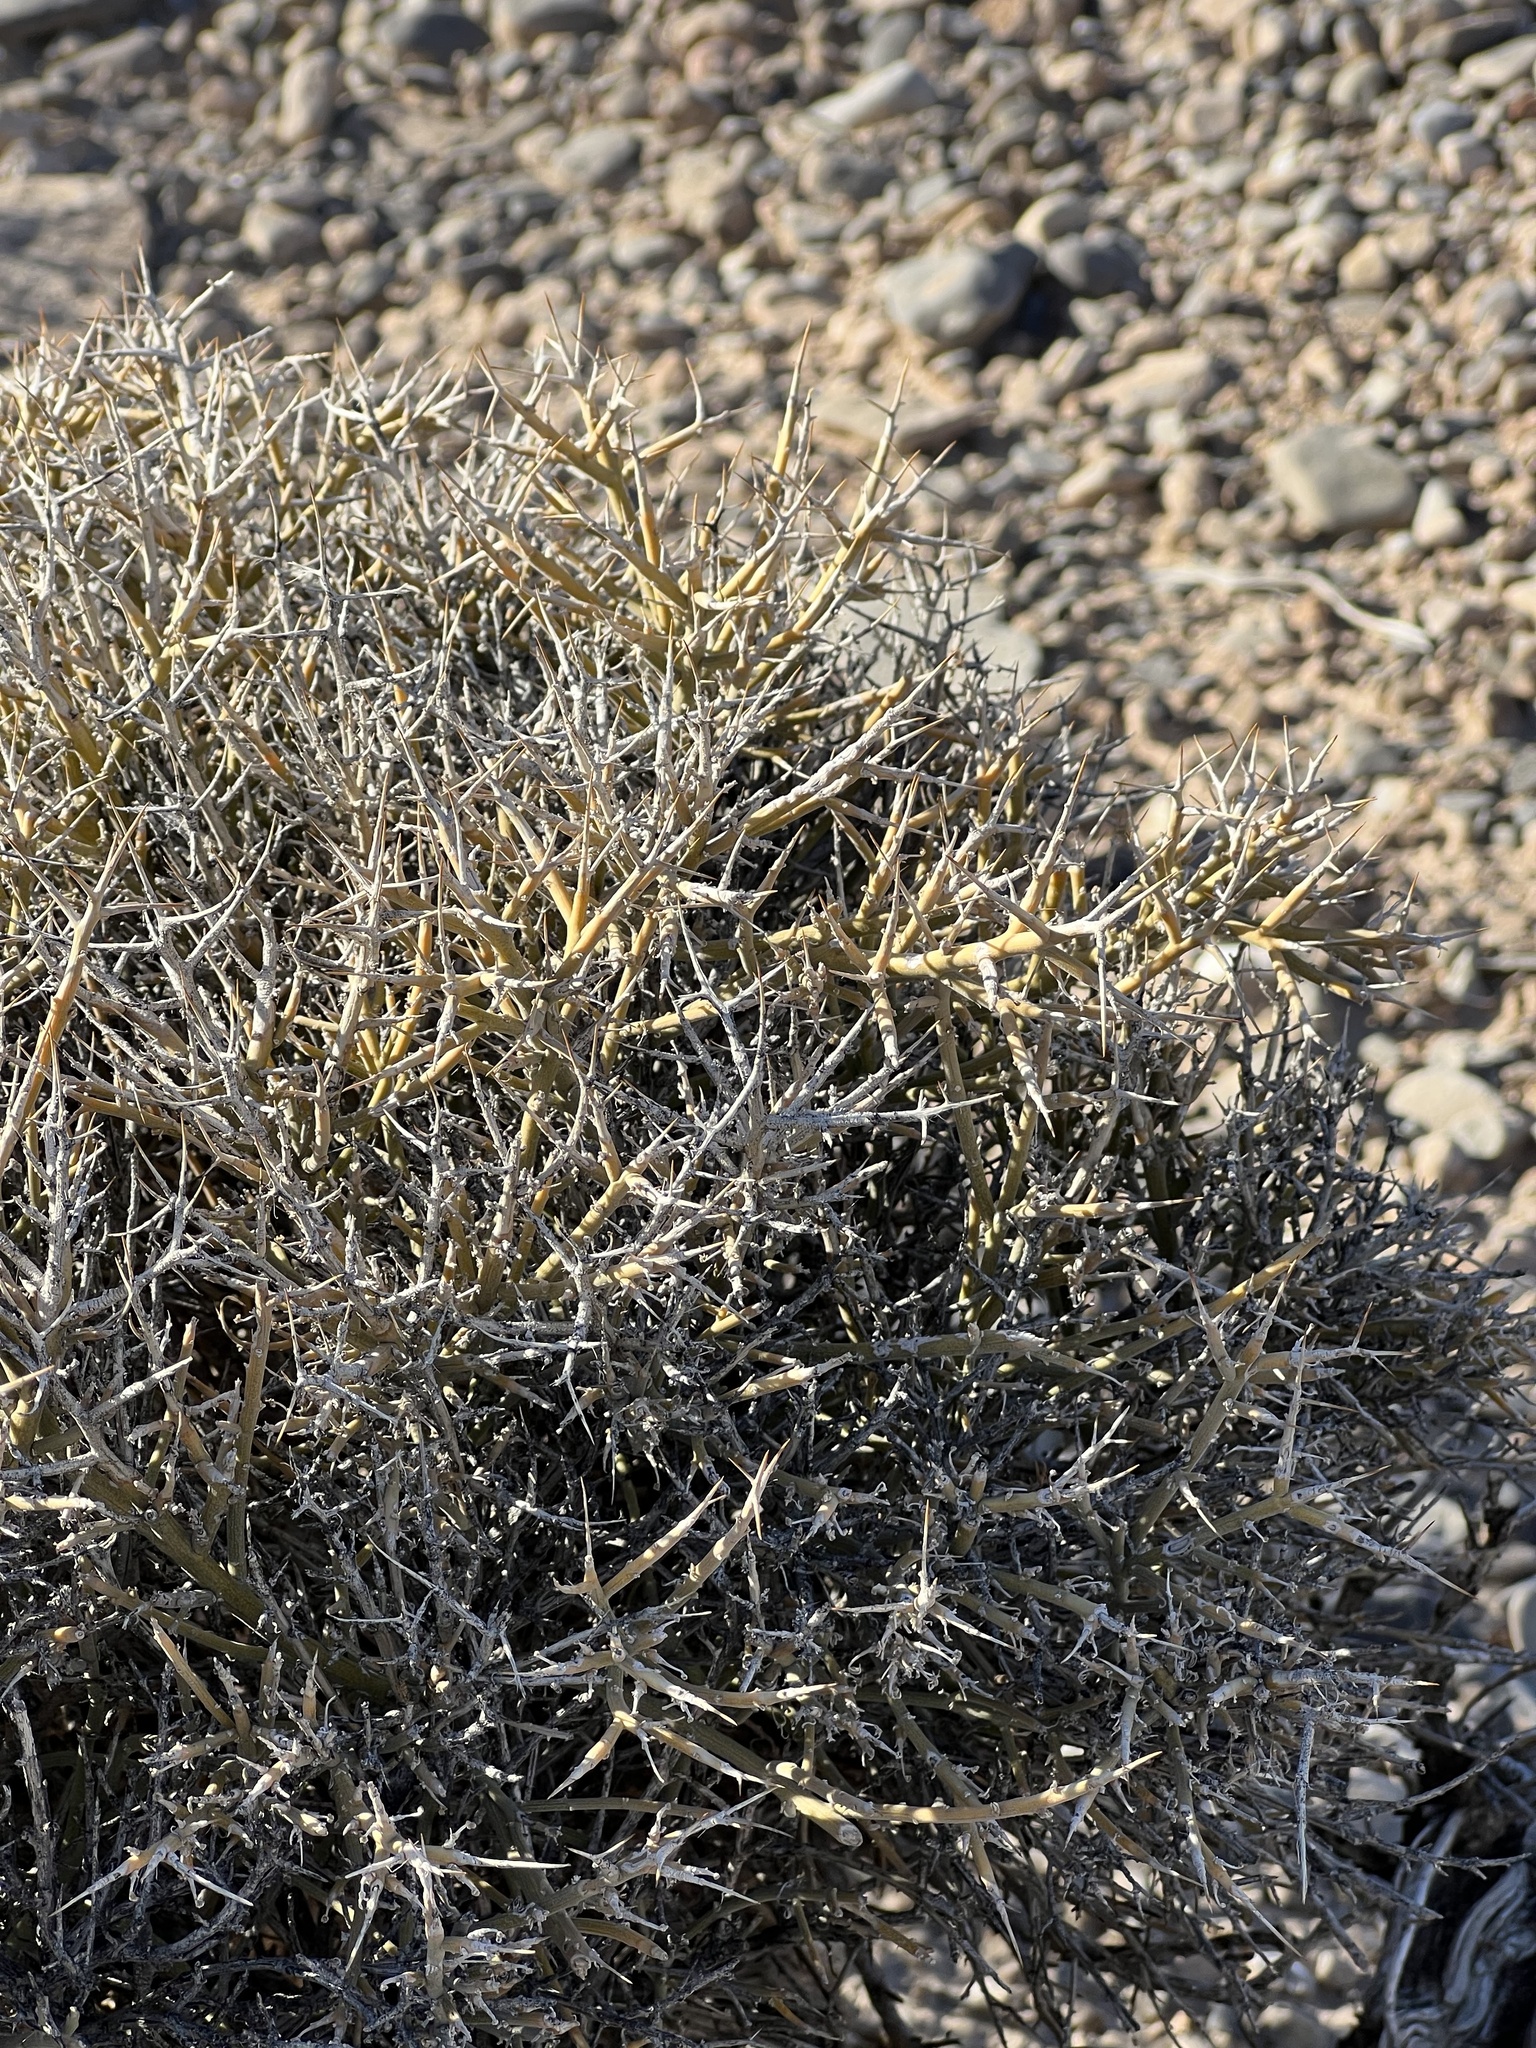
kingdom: Plantae
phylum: Tracheophyta
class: Magnoliopsida
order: Lamiales
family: Oleaceae
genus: Menodora
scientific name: Menodora spinescens
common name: Spiny menodora
